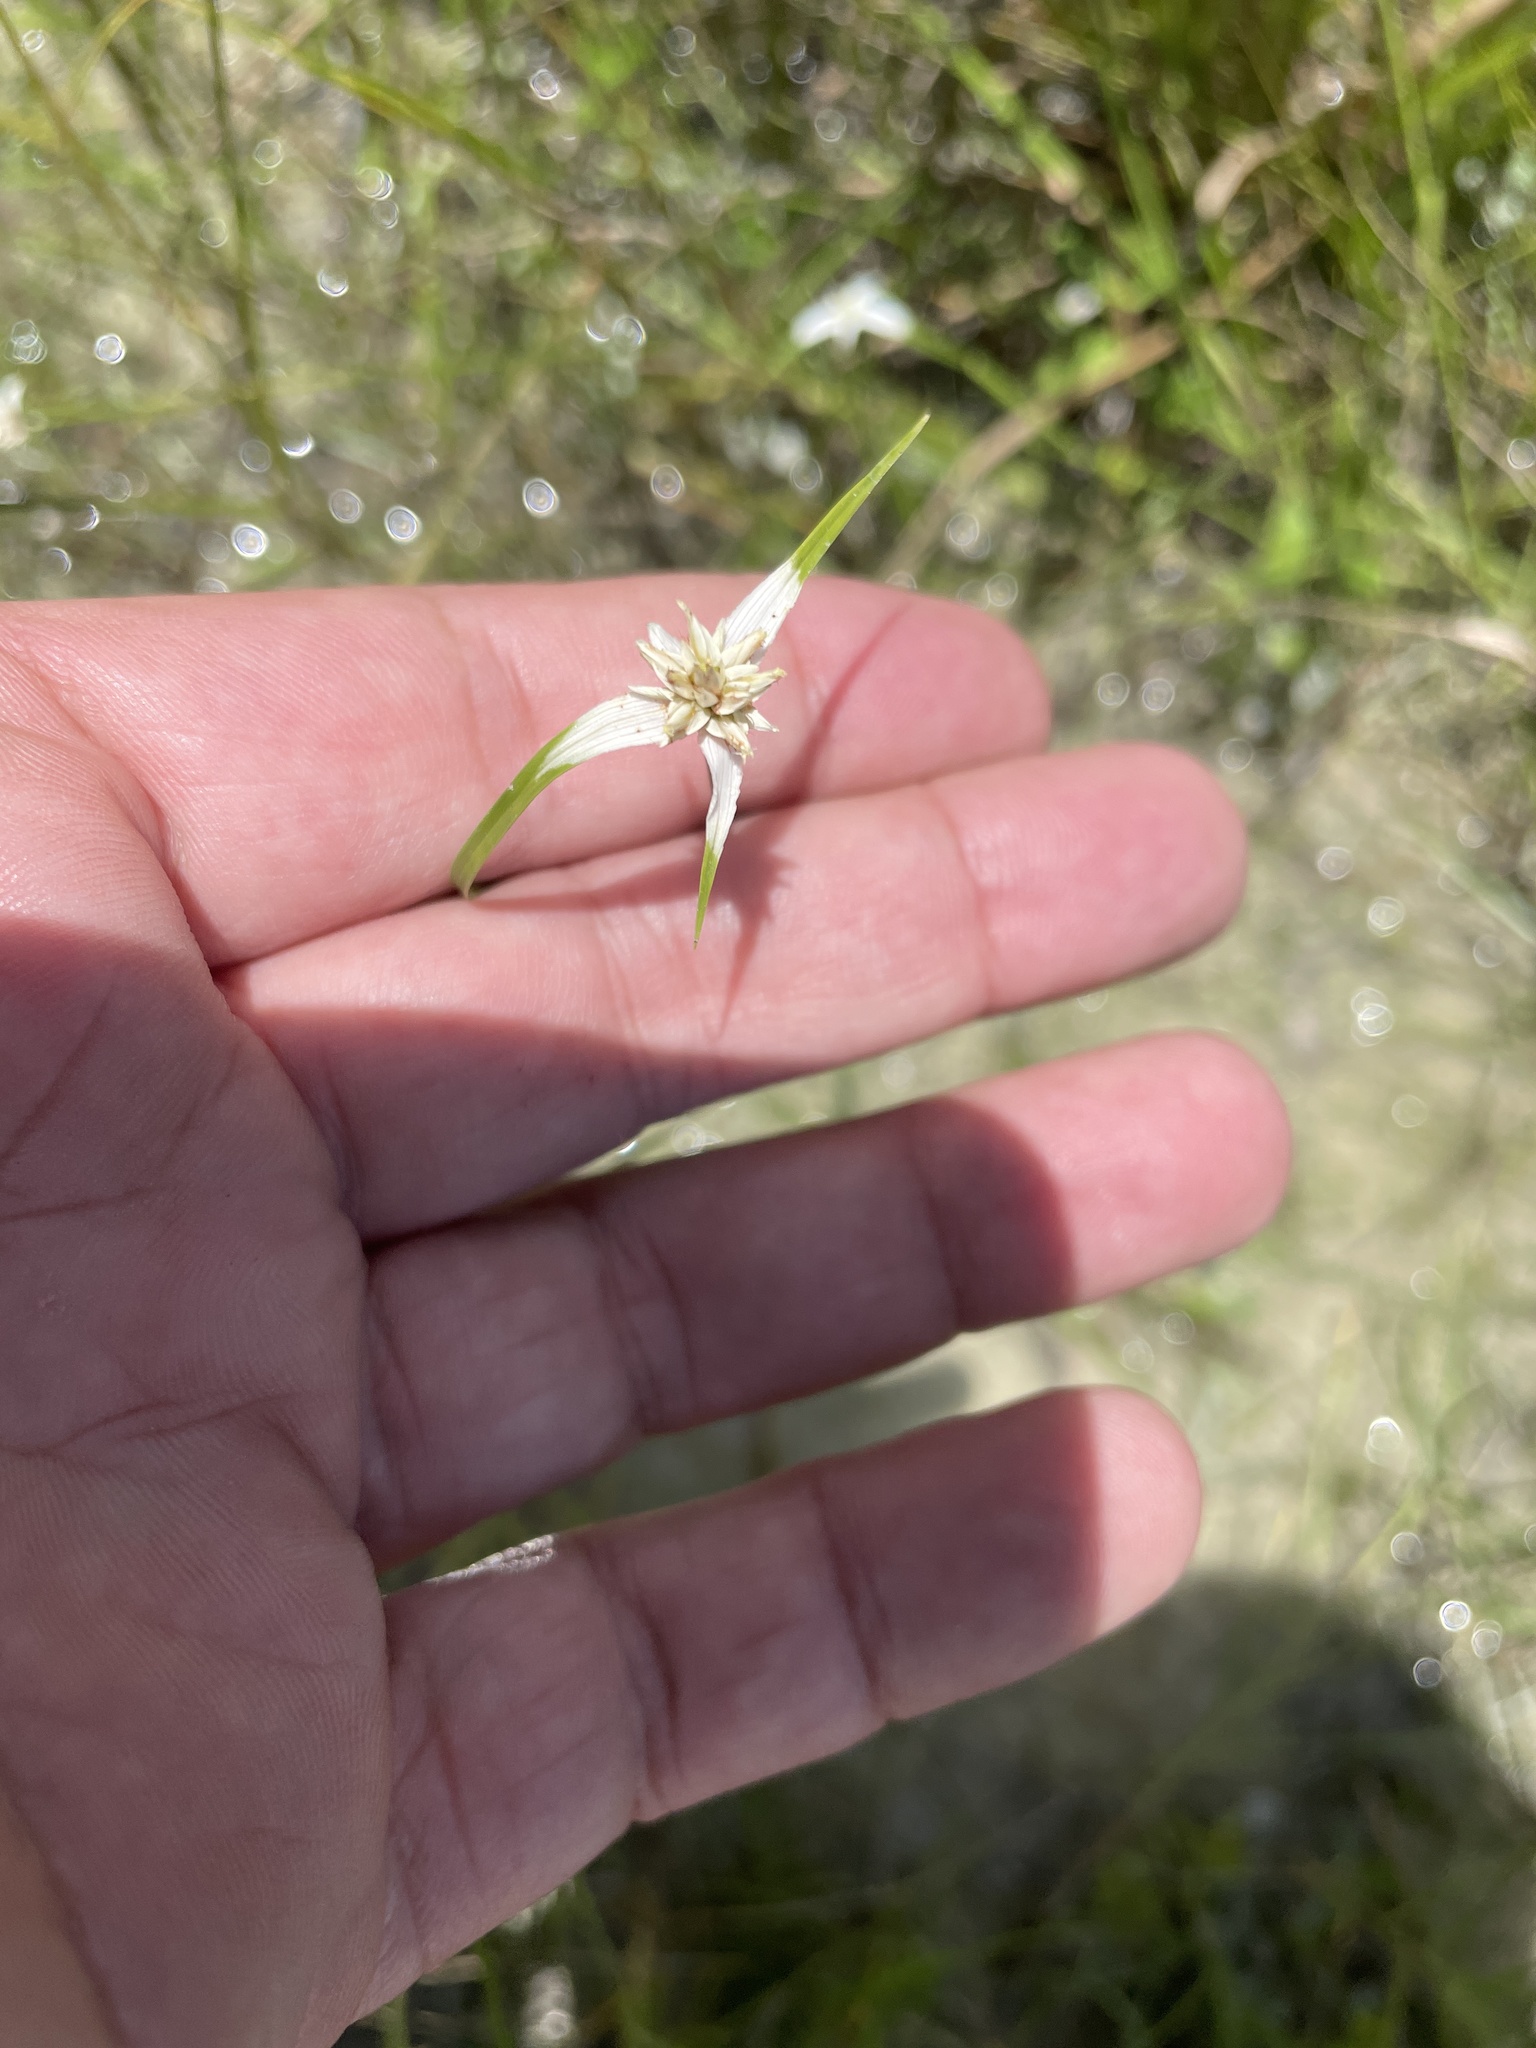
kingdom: Plantae
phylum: Tracheophyta
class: Liliopsida
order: Poales
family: Cyperaceae
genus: Rhynchospora
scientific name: Rhynchospora colorata
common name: Star sedge
